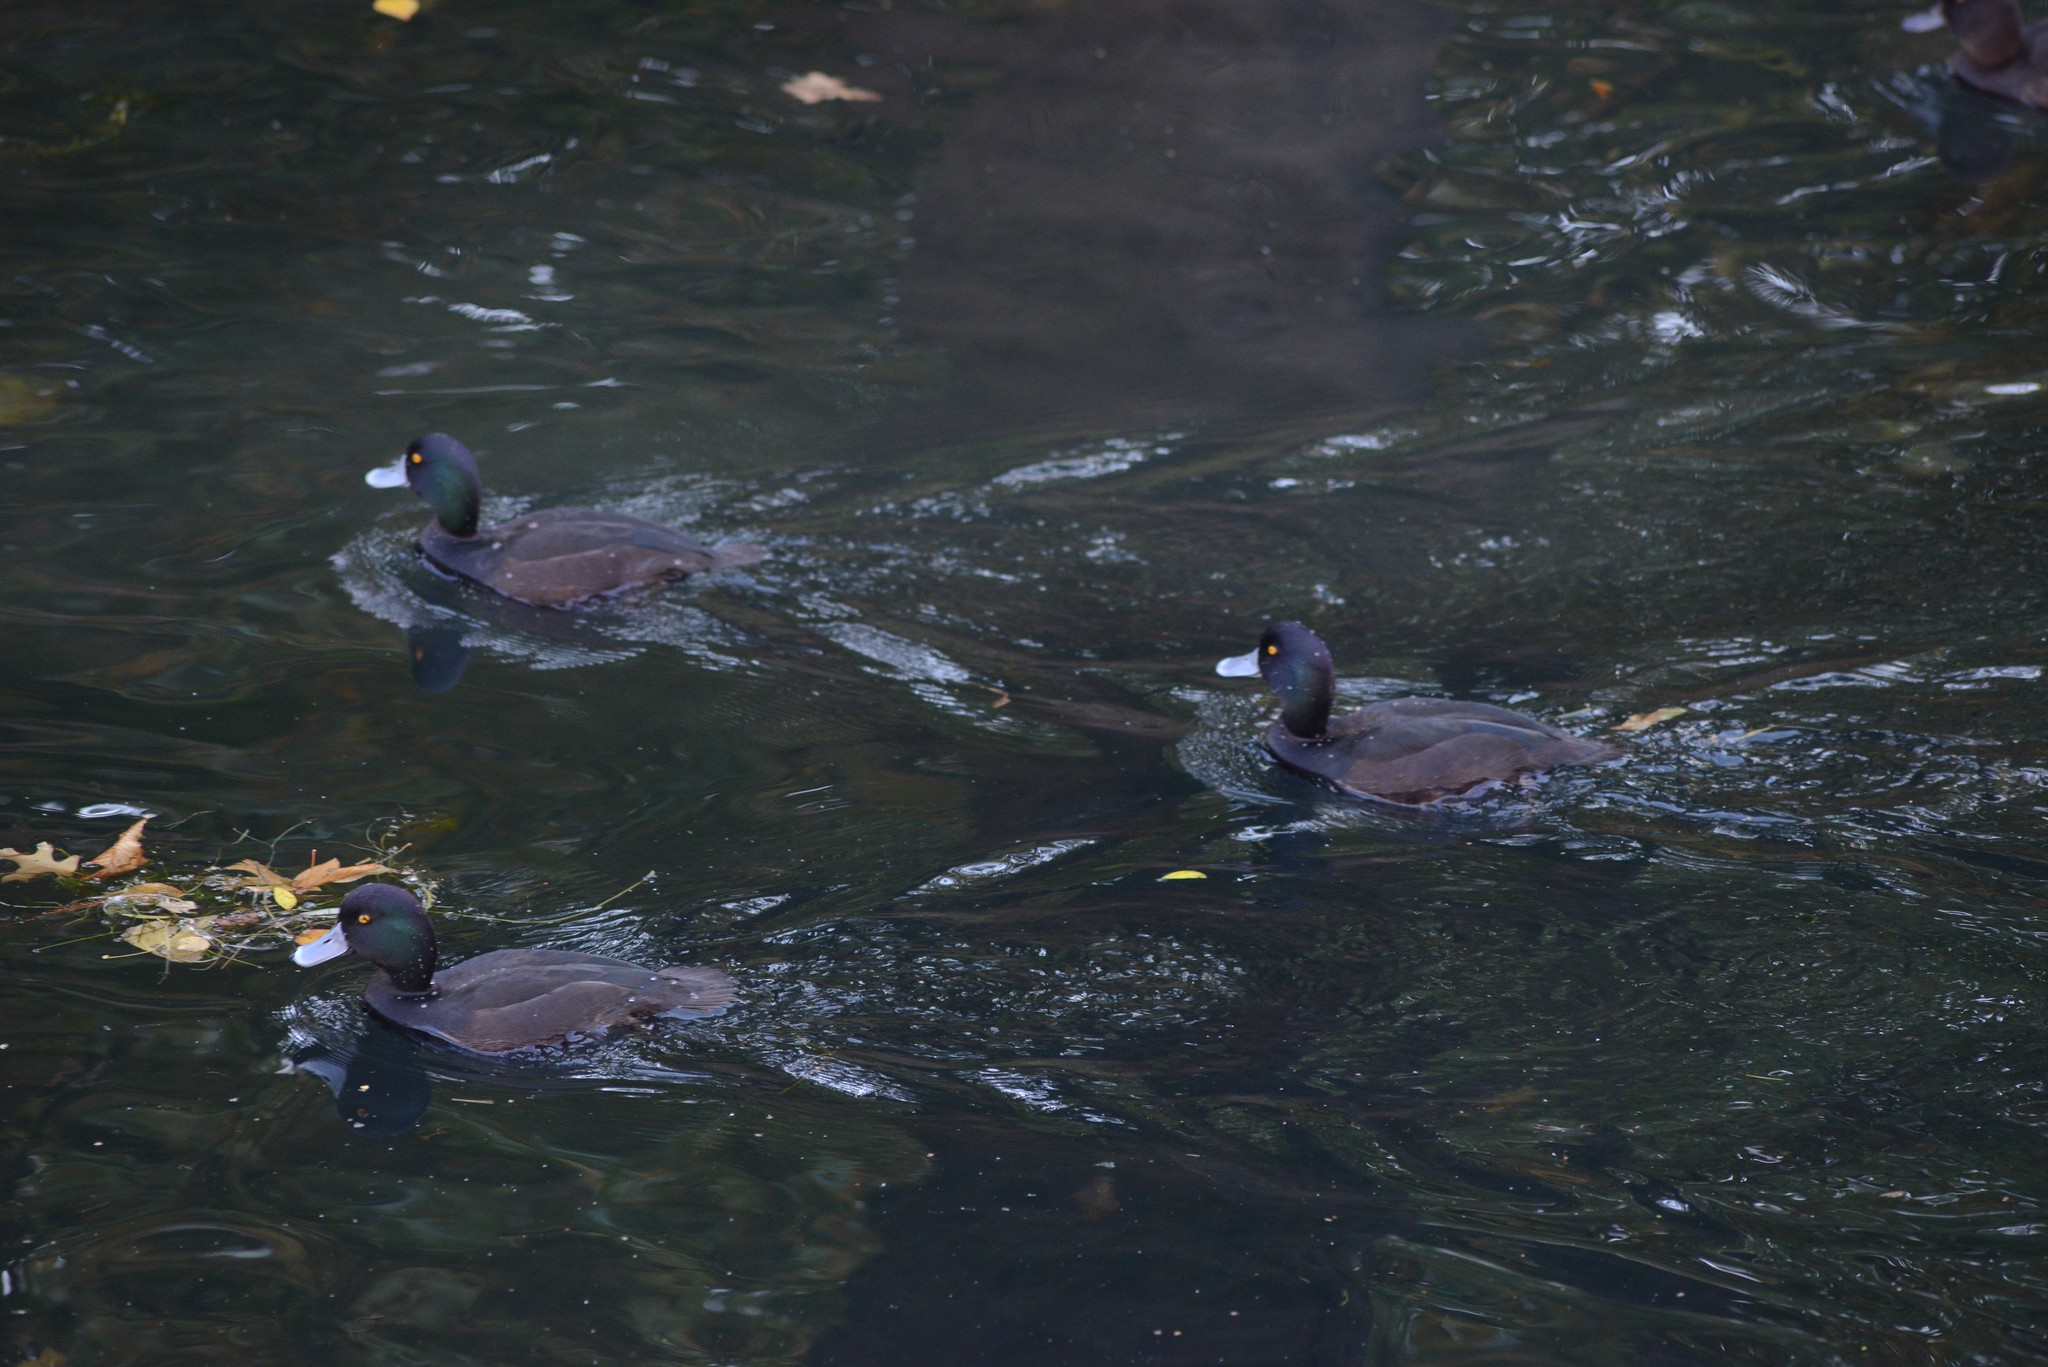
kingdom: Animalia
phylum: Chordata
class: Aves
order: Anseriformes
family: Anatidae
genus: Aythya
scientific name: Aythya novaeseelandiae
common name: New zealand scaup
